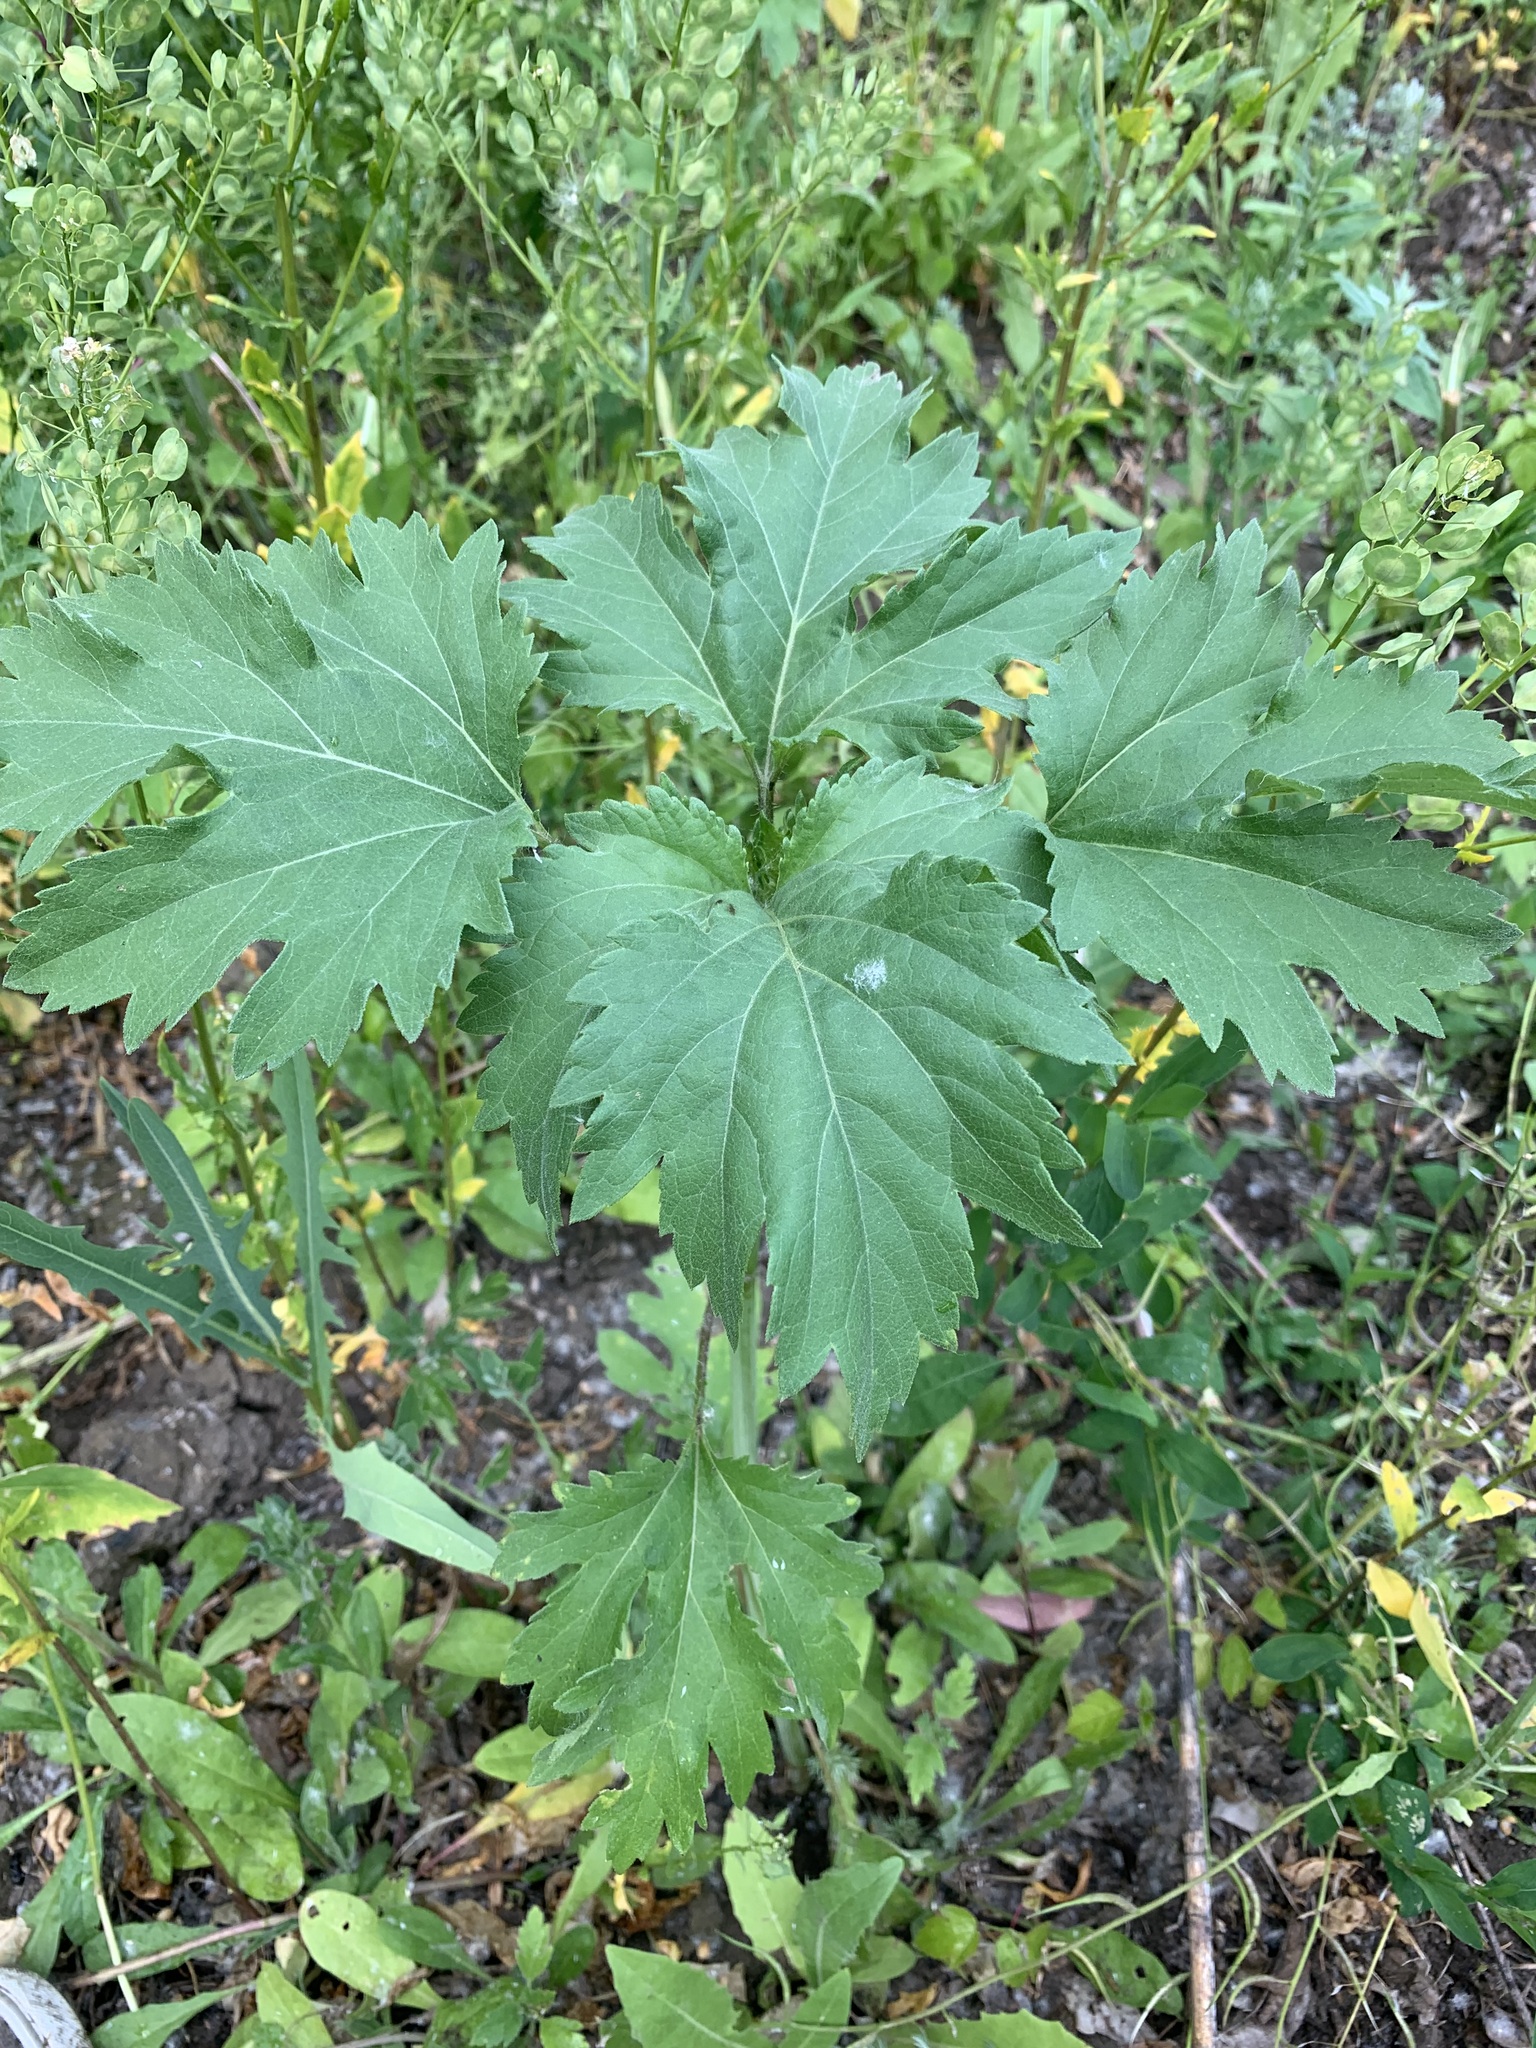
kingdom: Plantae
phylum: Tracheophyta
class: Magnoliopsida
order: Asterales
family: Asteraceae
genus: Cyclachaena
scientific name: Cyclachaena xanthiifolia
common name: Giant sumpweed
